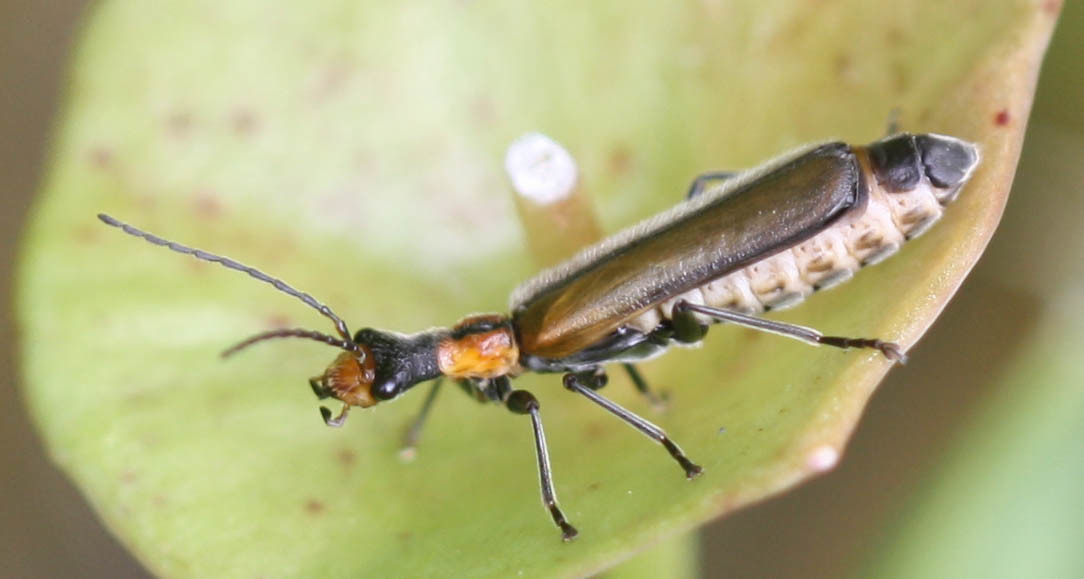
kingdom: Animalia
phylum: Arthropoda
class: Insecta
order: Coleoptera
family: Cantharidae
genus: Dichelotarsus
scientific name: Dichelotarsus cavicollis
